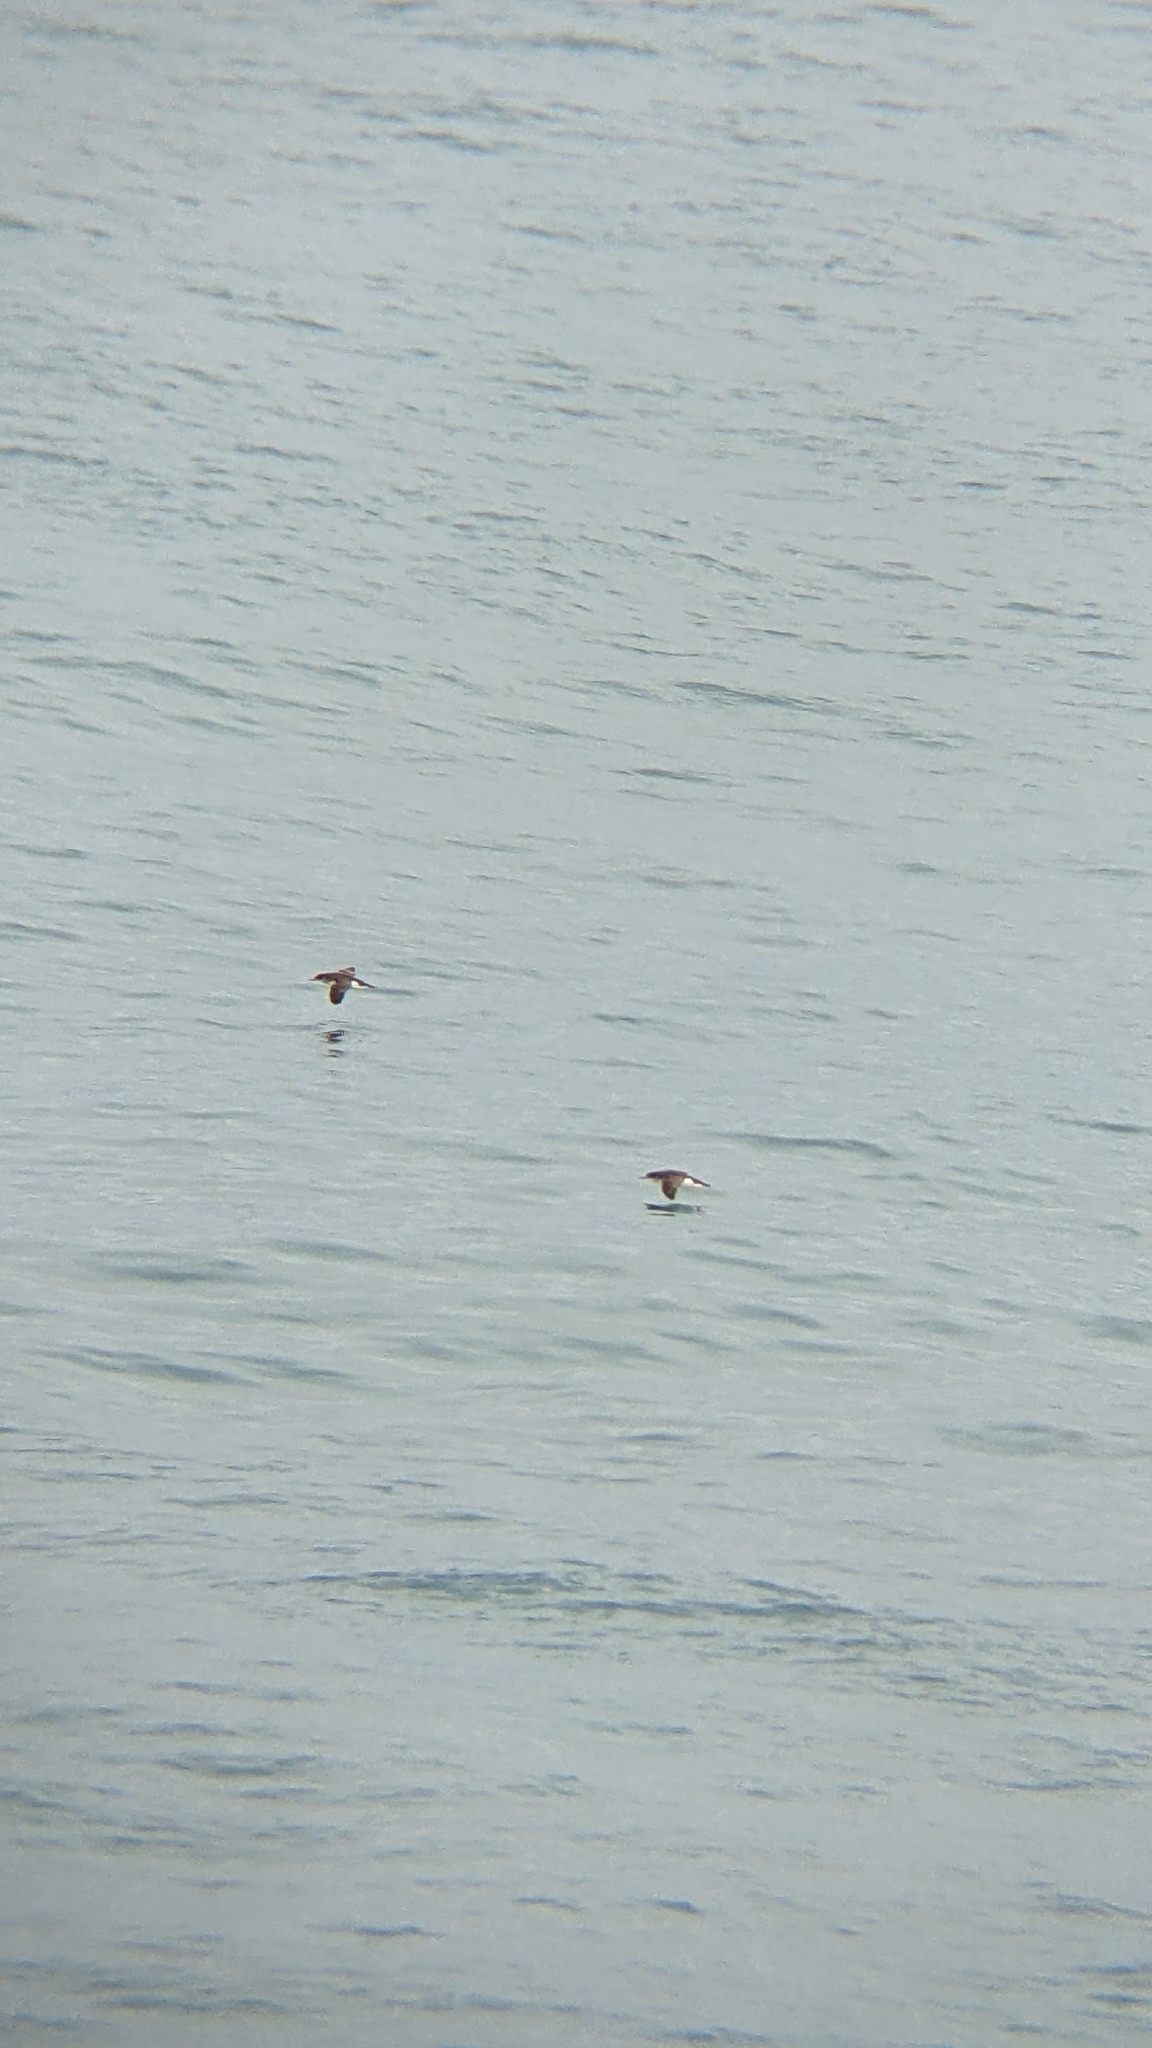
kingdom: Animalia
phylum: Chordata
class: Aves
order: Procellariiformes
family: Procellariidae
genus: Puffinus
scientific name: Puffinus gavia
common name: Fluttering shearwater
